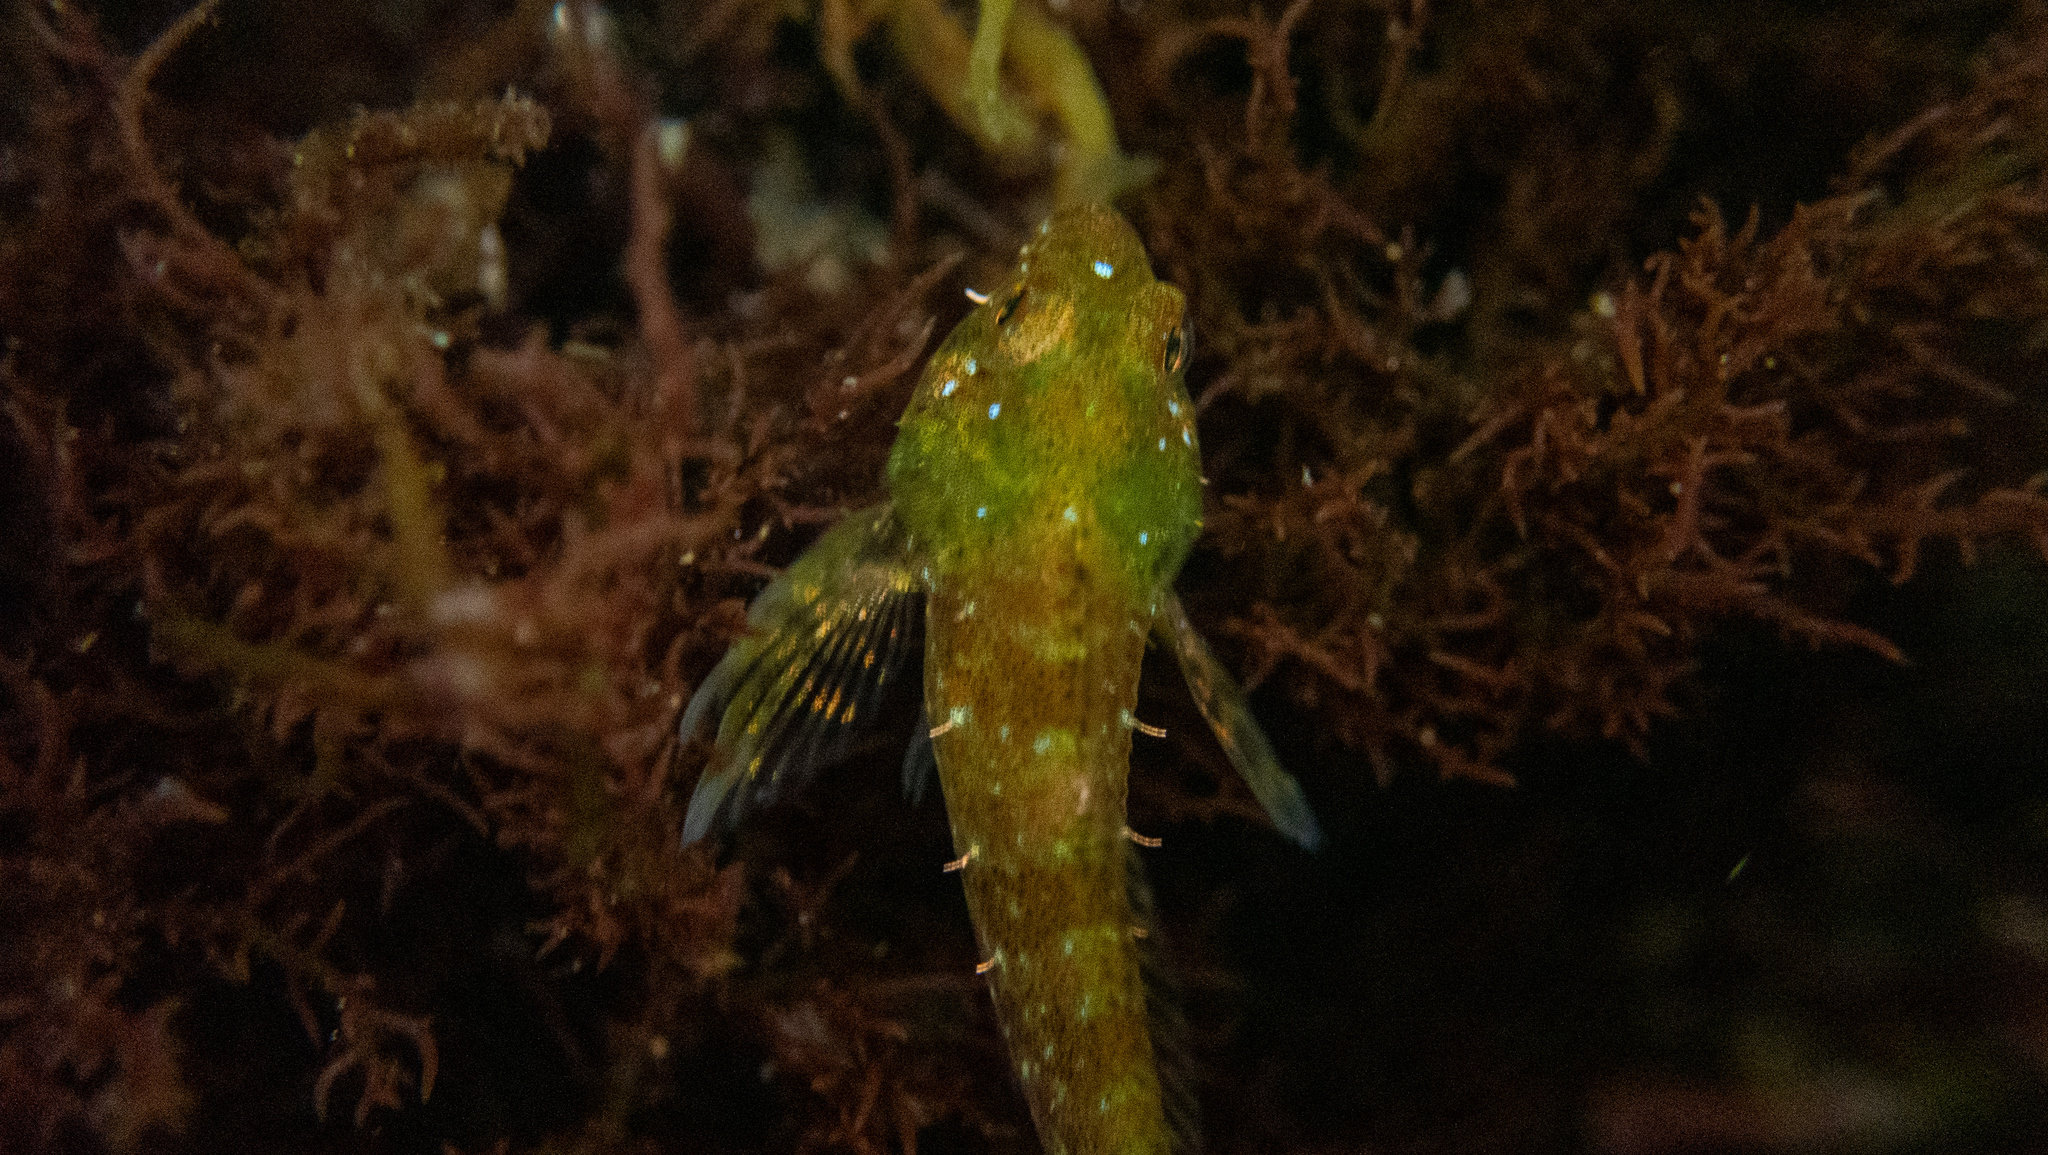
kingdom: Animalia
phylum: Chordata
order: Scorpaeniformes
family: Cottidae
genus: Clinocottus
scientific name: Clinocottus analis
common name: Woolly sculpin
